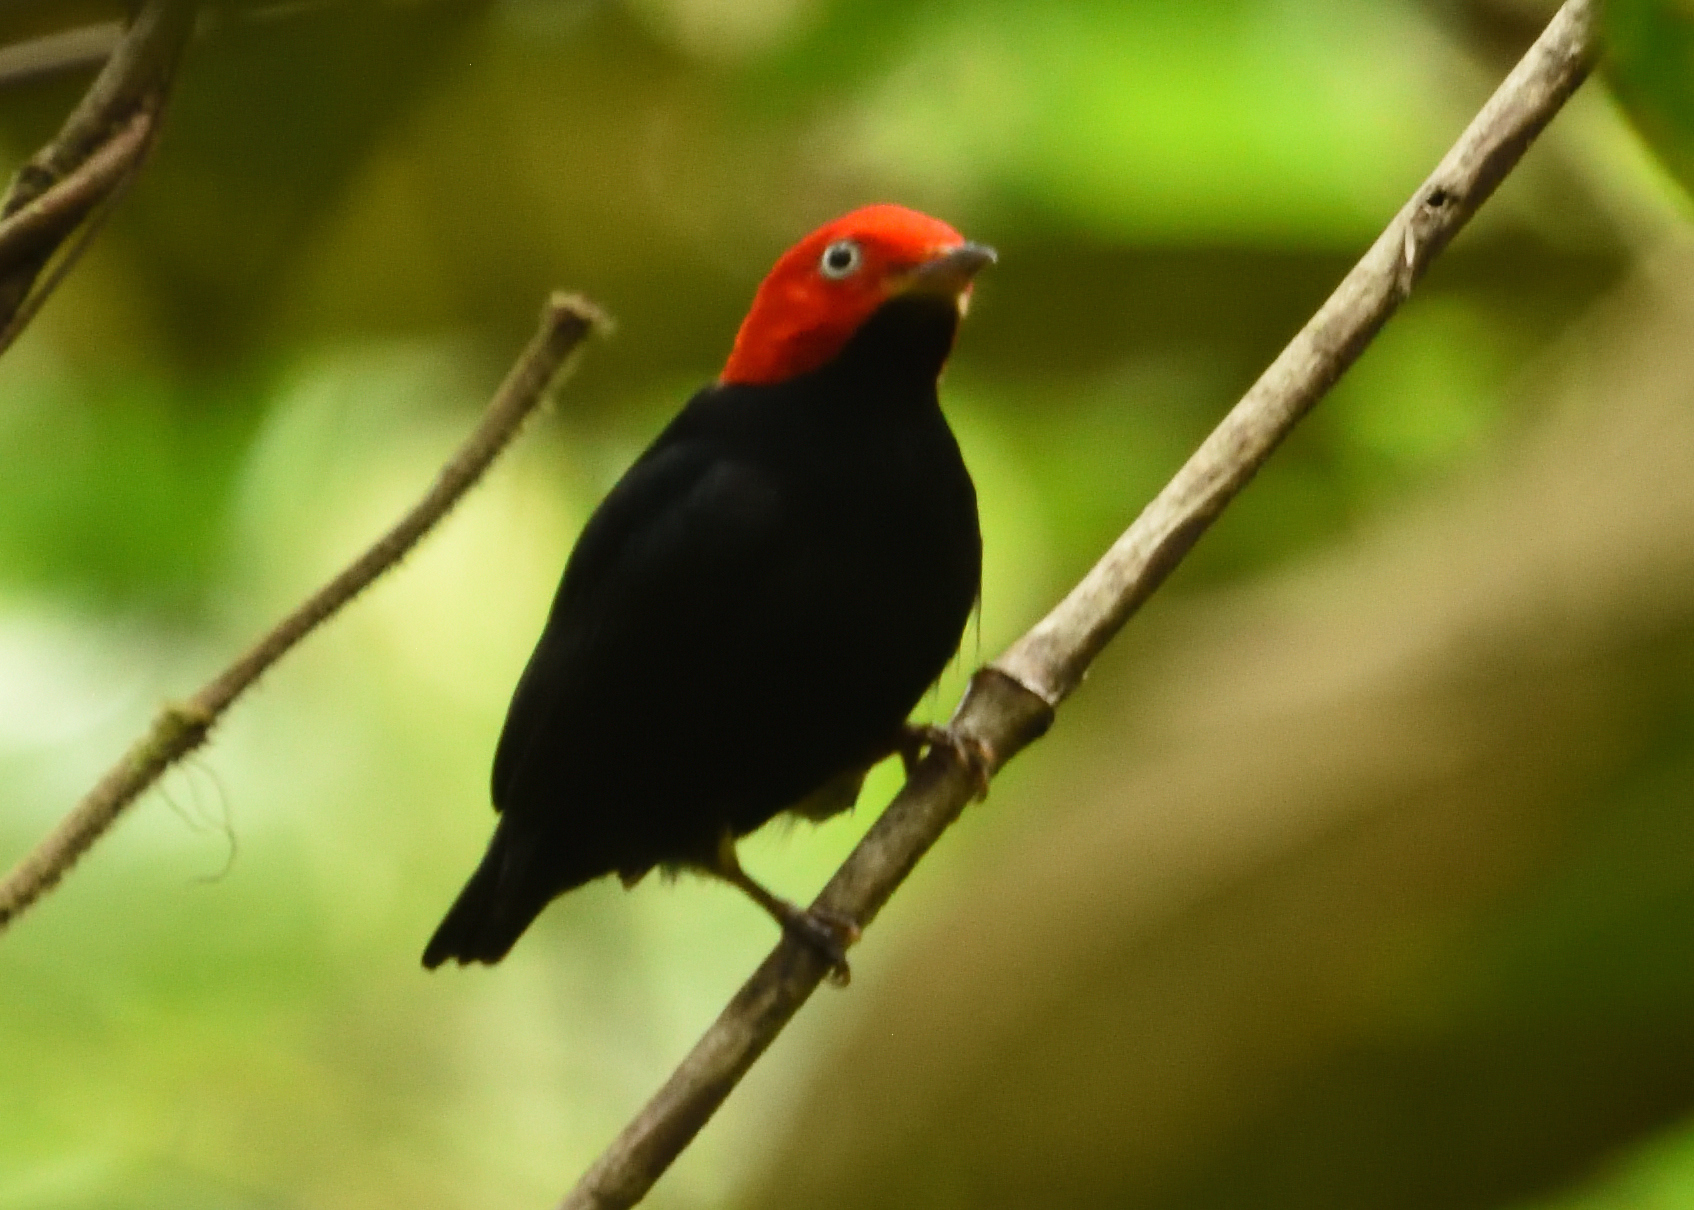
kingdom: Animalia
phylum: Chordata
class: Aves
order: Passeriformes
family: Pipridae
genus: Pipra
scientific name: Pipra mentalis
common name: Red-capped manakin
